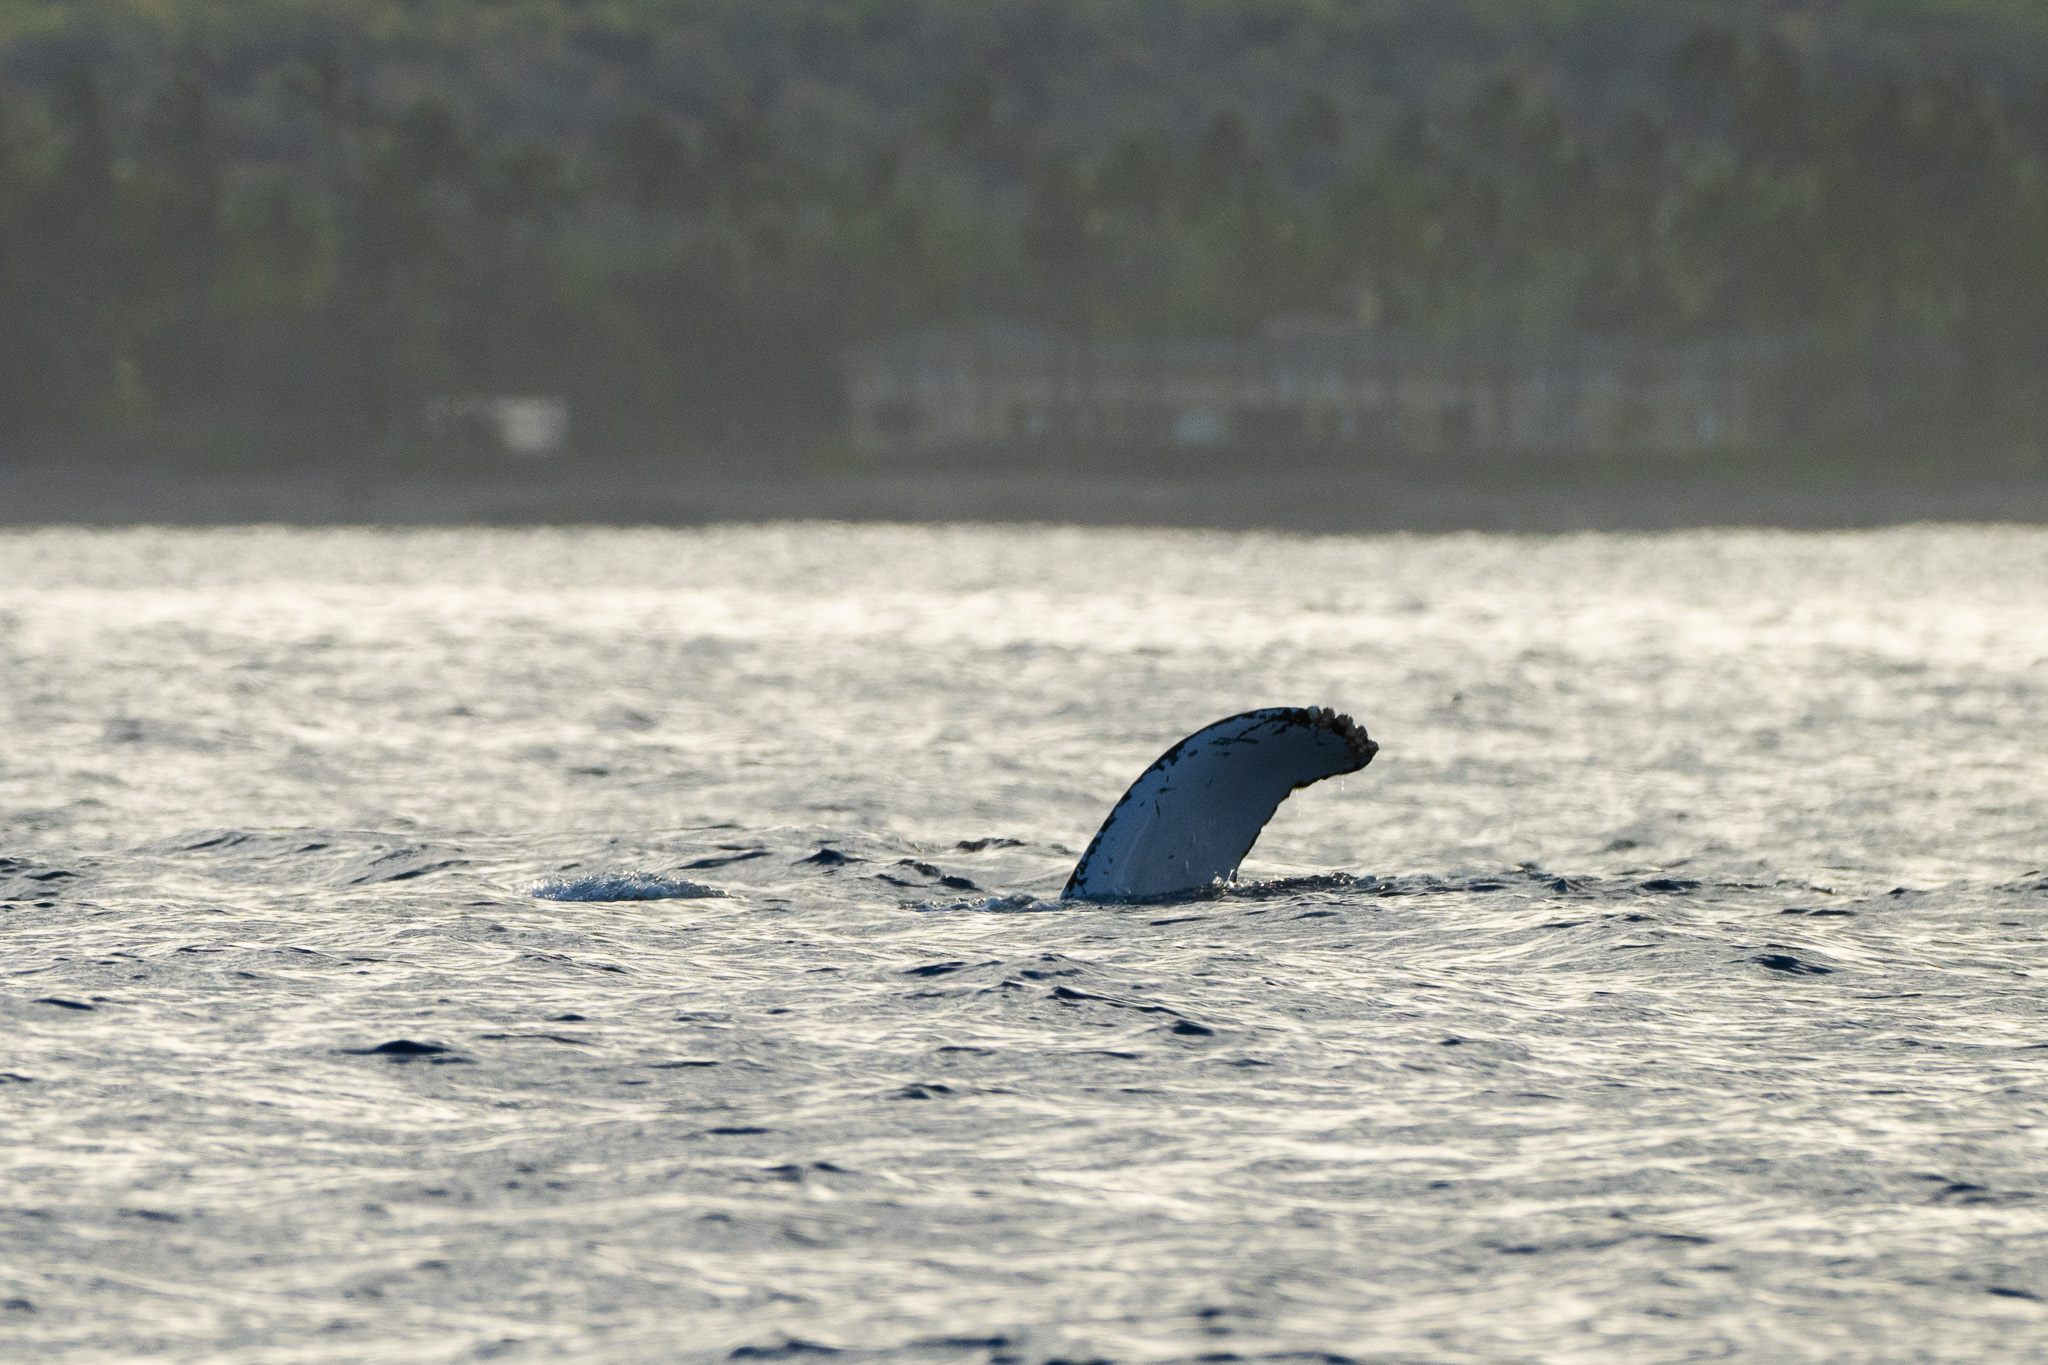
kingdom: Animalia
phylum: Chordata
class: Mammalia
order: Cetacea
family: Balaenopteridae
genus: Megaptera
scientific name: Megaptera novaeangliae
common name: Humpback whale
